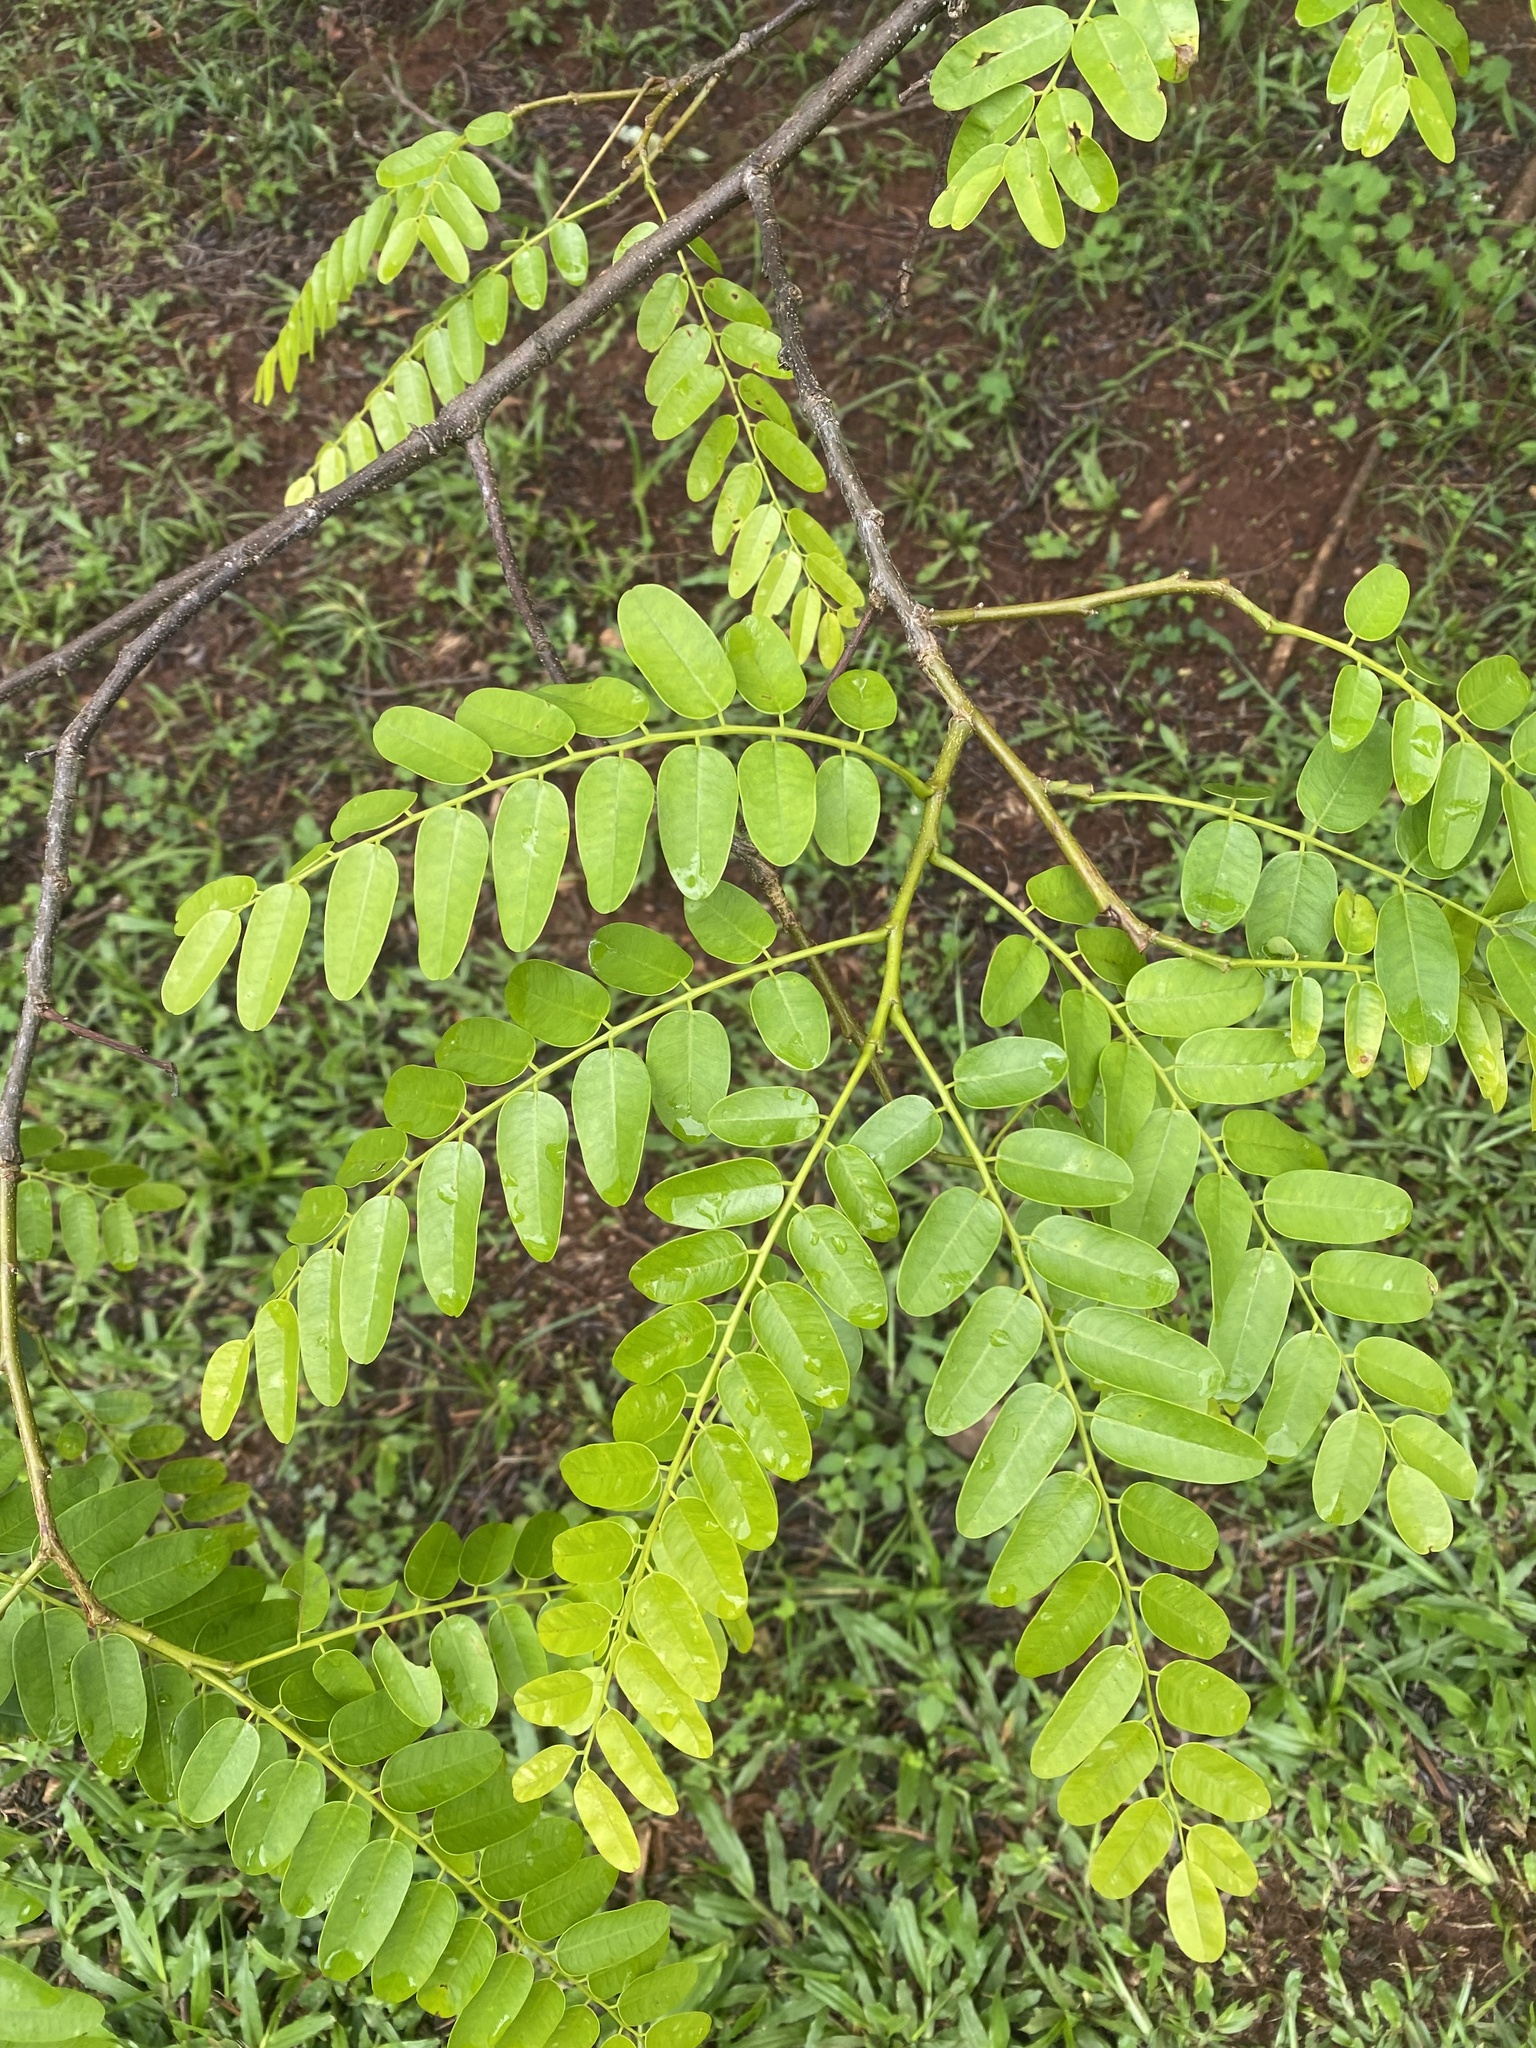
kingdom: Plantae
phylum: Tracheophyta
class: Magnoliopsida
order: Fabales
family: Fabaceae
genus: Cordyla
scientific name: Cordyla africana
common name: Wild mango
